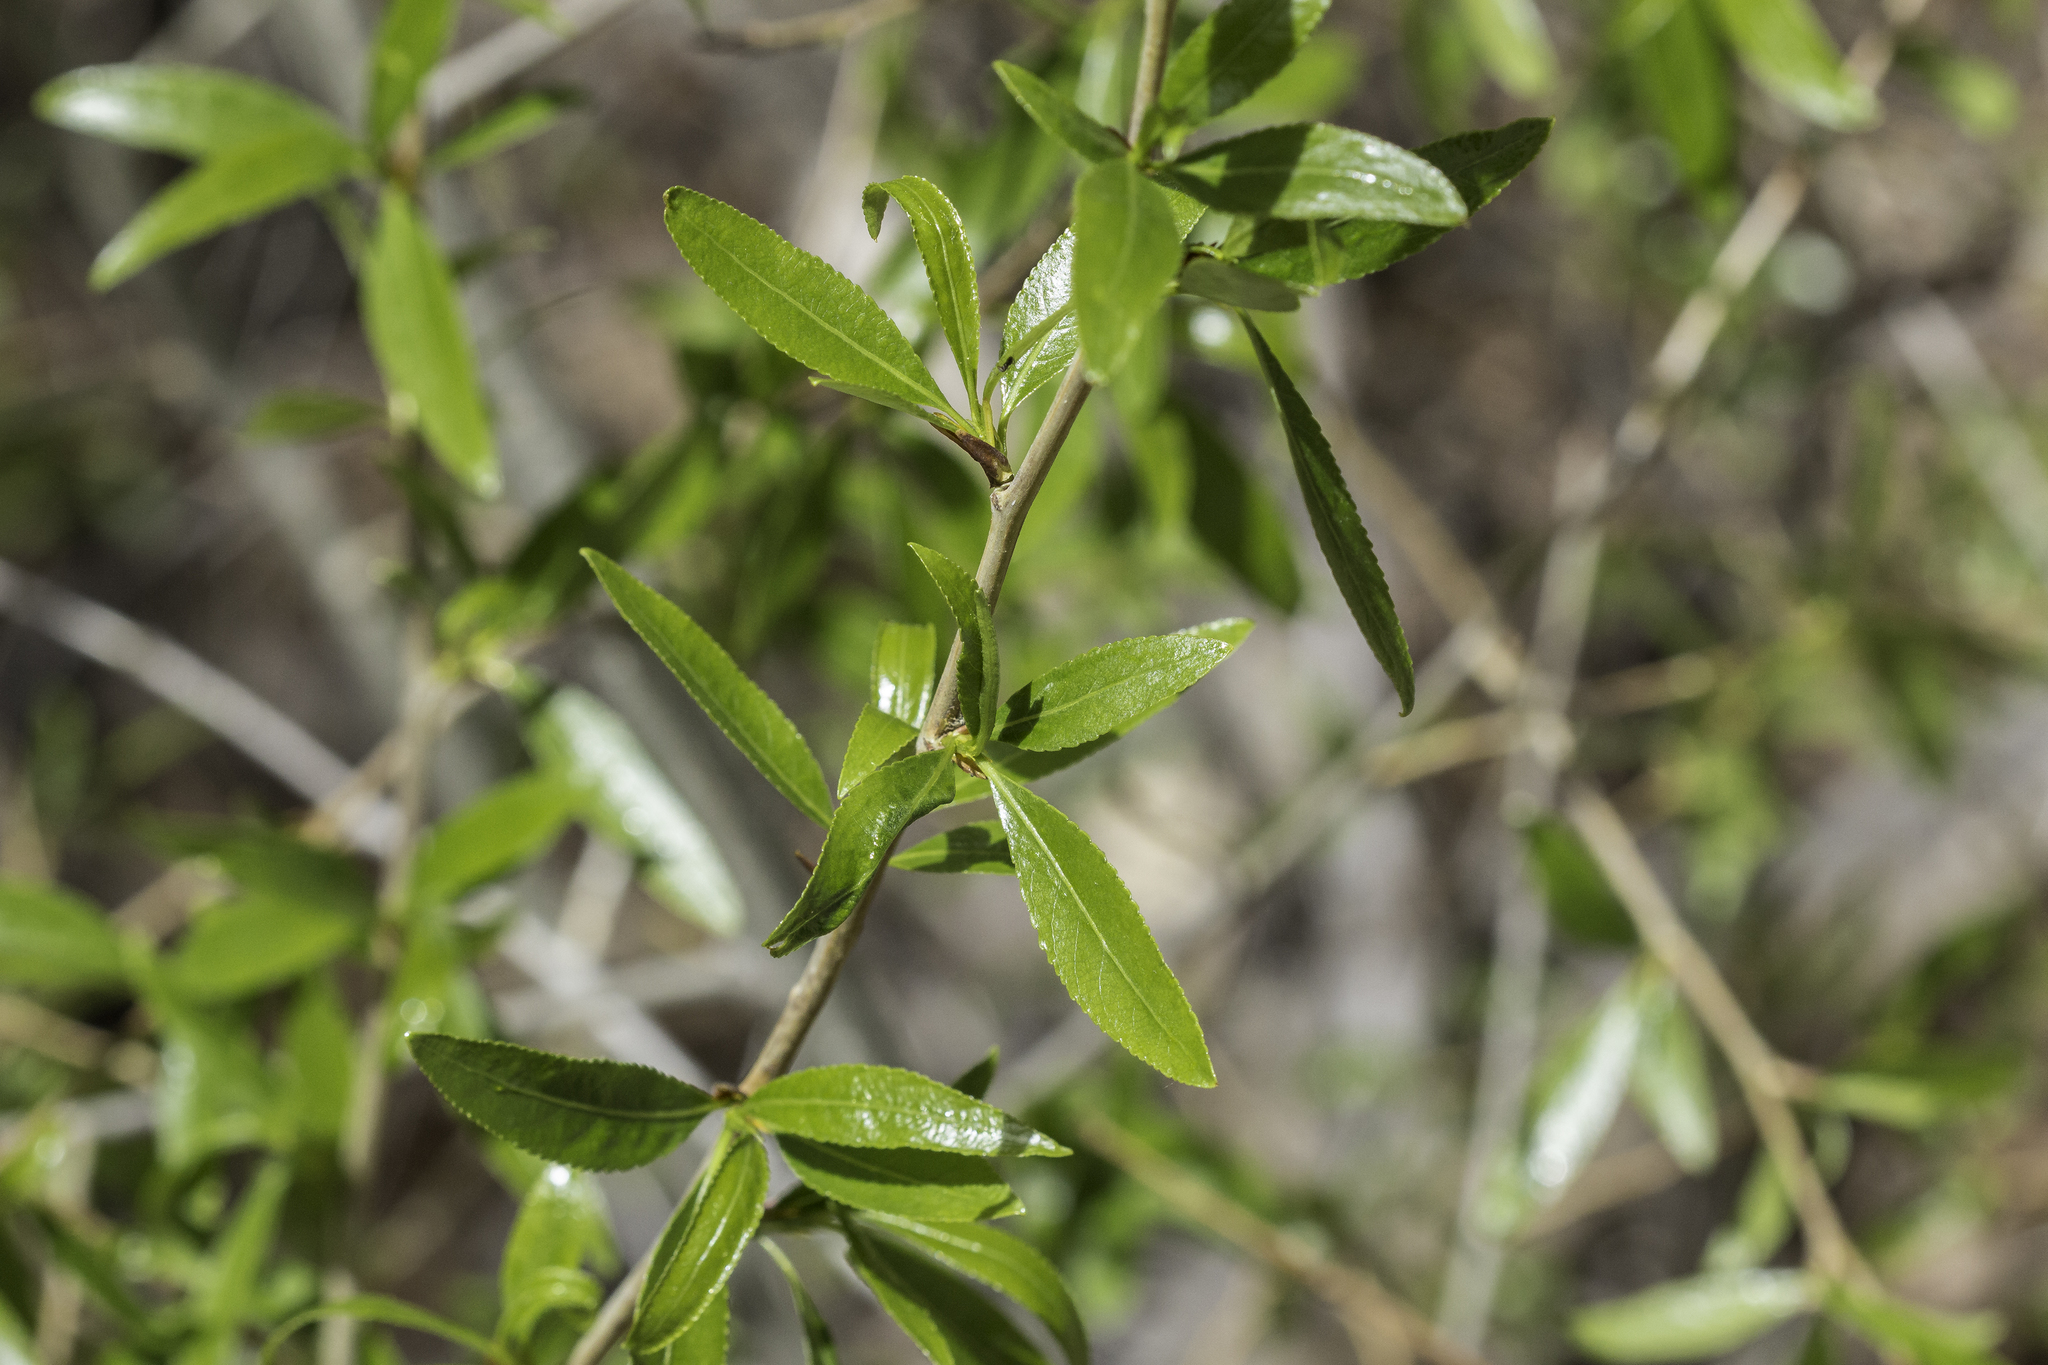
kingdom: Plantae
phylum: Tracheophyta
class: Magnoliopsida
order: Malpighiales
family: Salicaceae
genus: Populus
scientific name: Populus angustifolia
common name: Willow cottonwood
